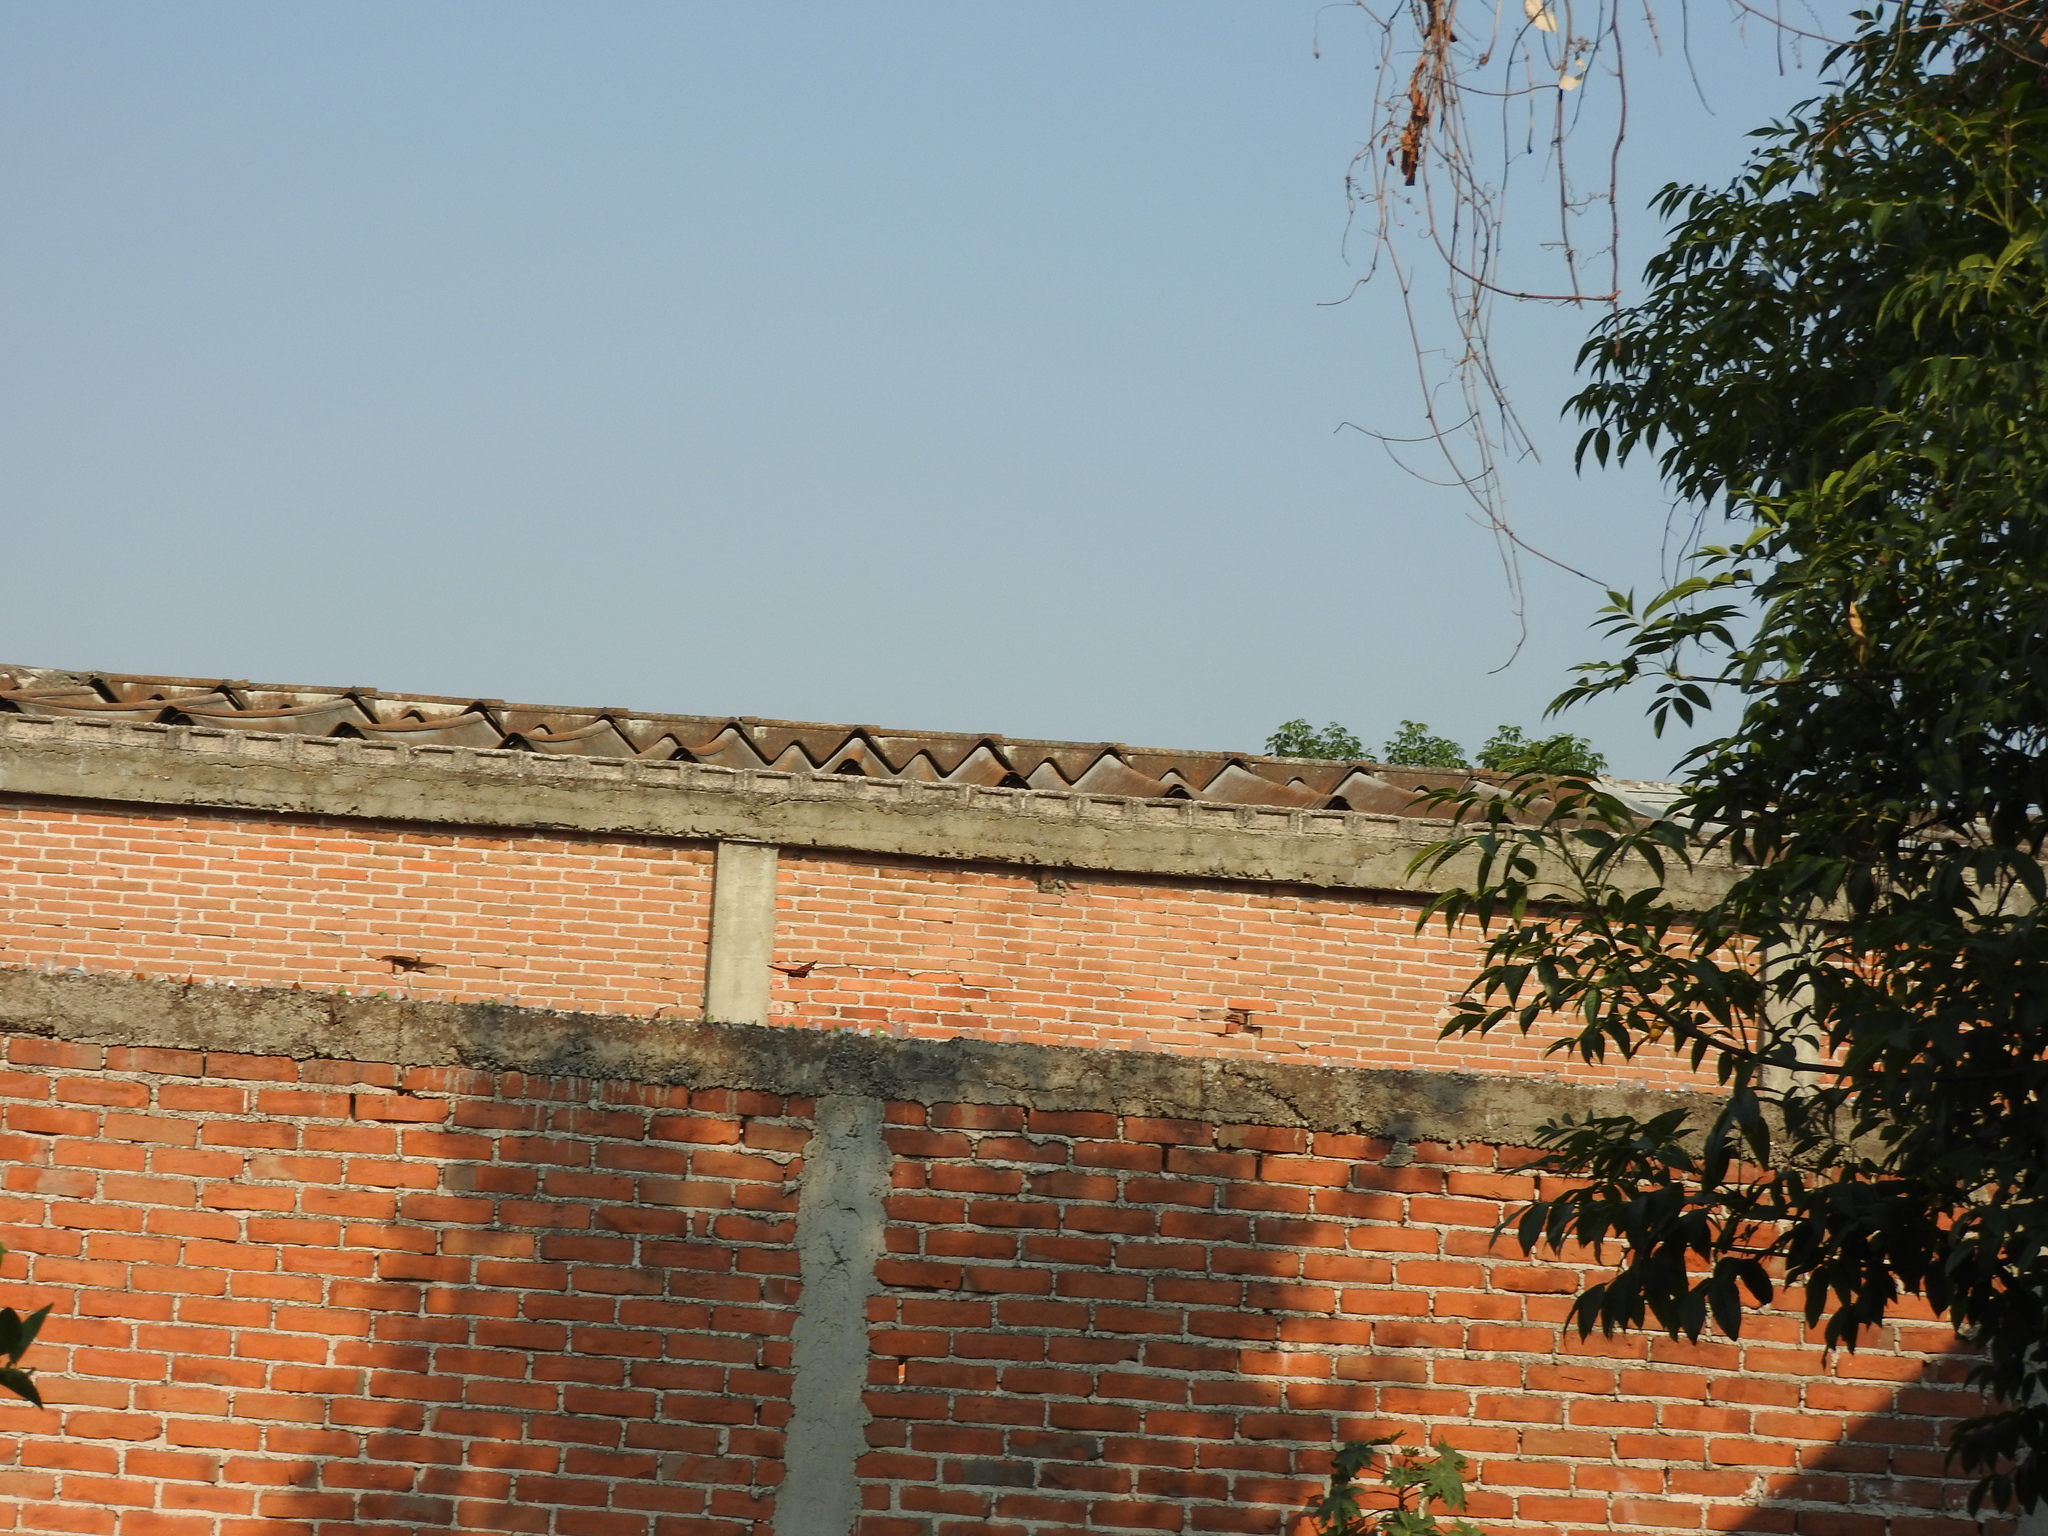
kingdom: Animalia
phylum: Arthropoda
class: Insecta
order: Lepidoptera
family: Nymphalidae
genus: Danaus
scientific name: Danaus plexippus
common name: Monarch
